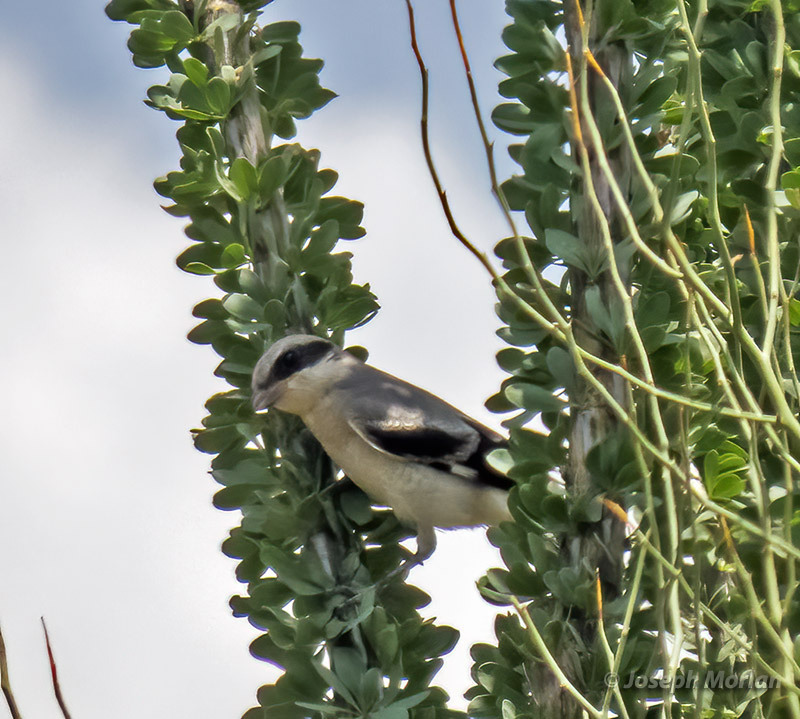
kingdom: Animalia
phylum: Chordata
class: Aves
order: Passeriformes
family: Laniidae
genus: Lanius
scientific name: Lanius ludovicianus
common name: Loggerhead shrike
